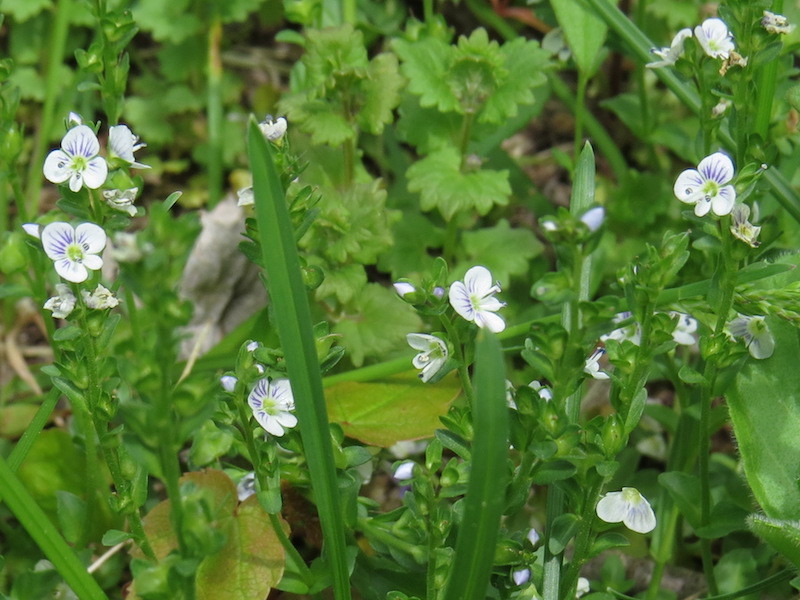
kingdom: Plantae
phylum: Tracheophyta
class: Magnoliopsida
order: Lamiales
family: Plantaginaceae
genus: Veronica
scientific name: Veronica serpyllifolia
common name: Thyme-leaved speedwell
